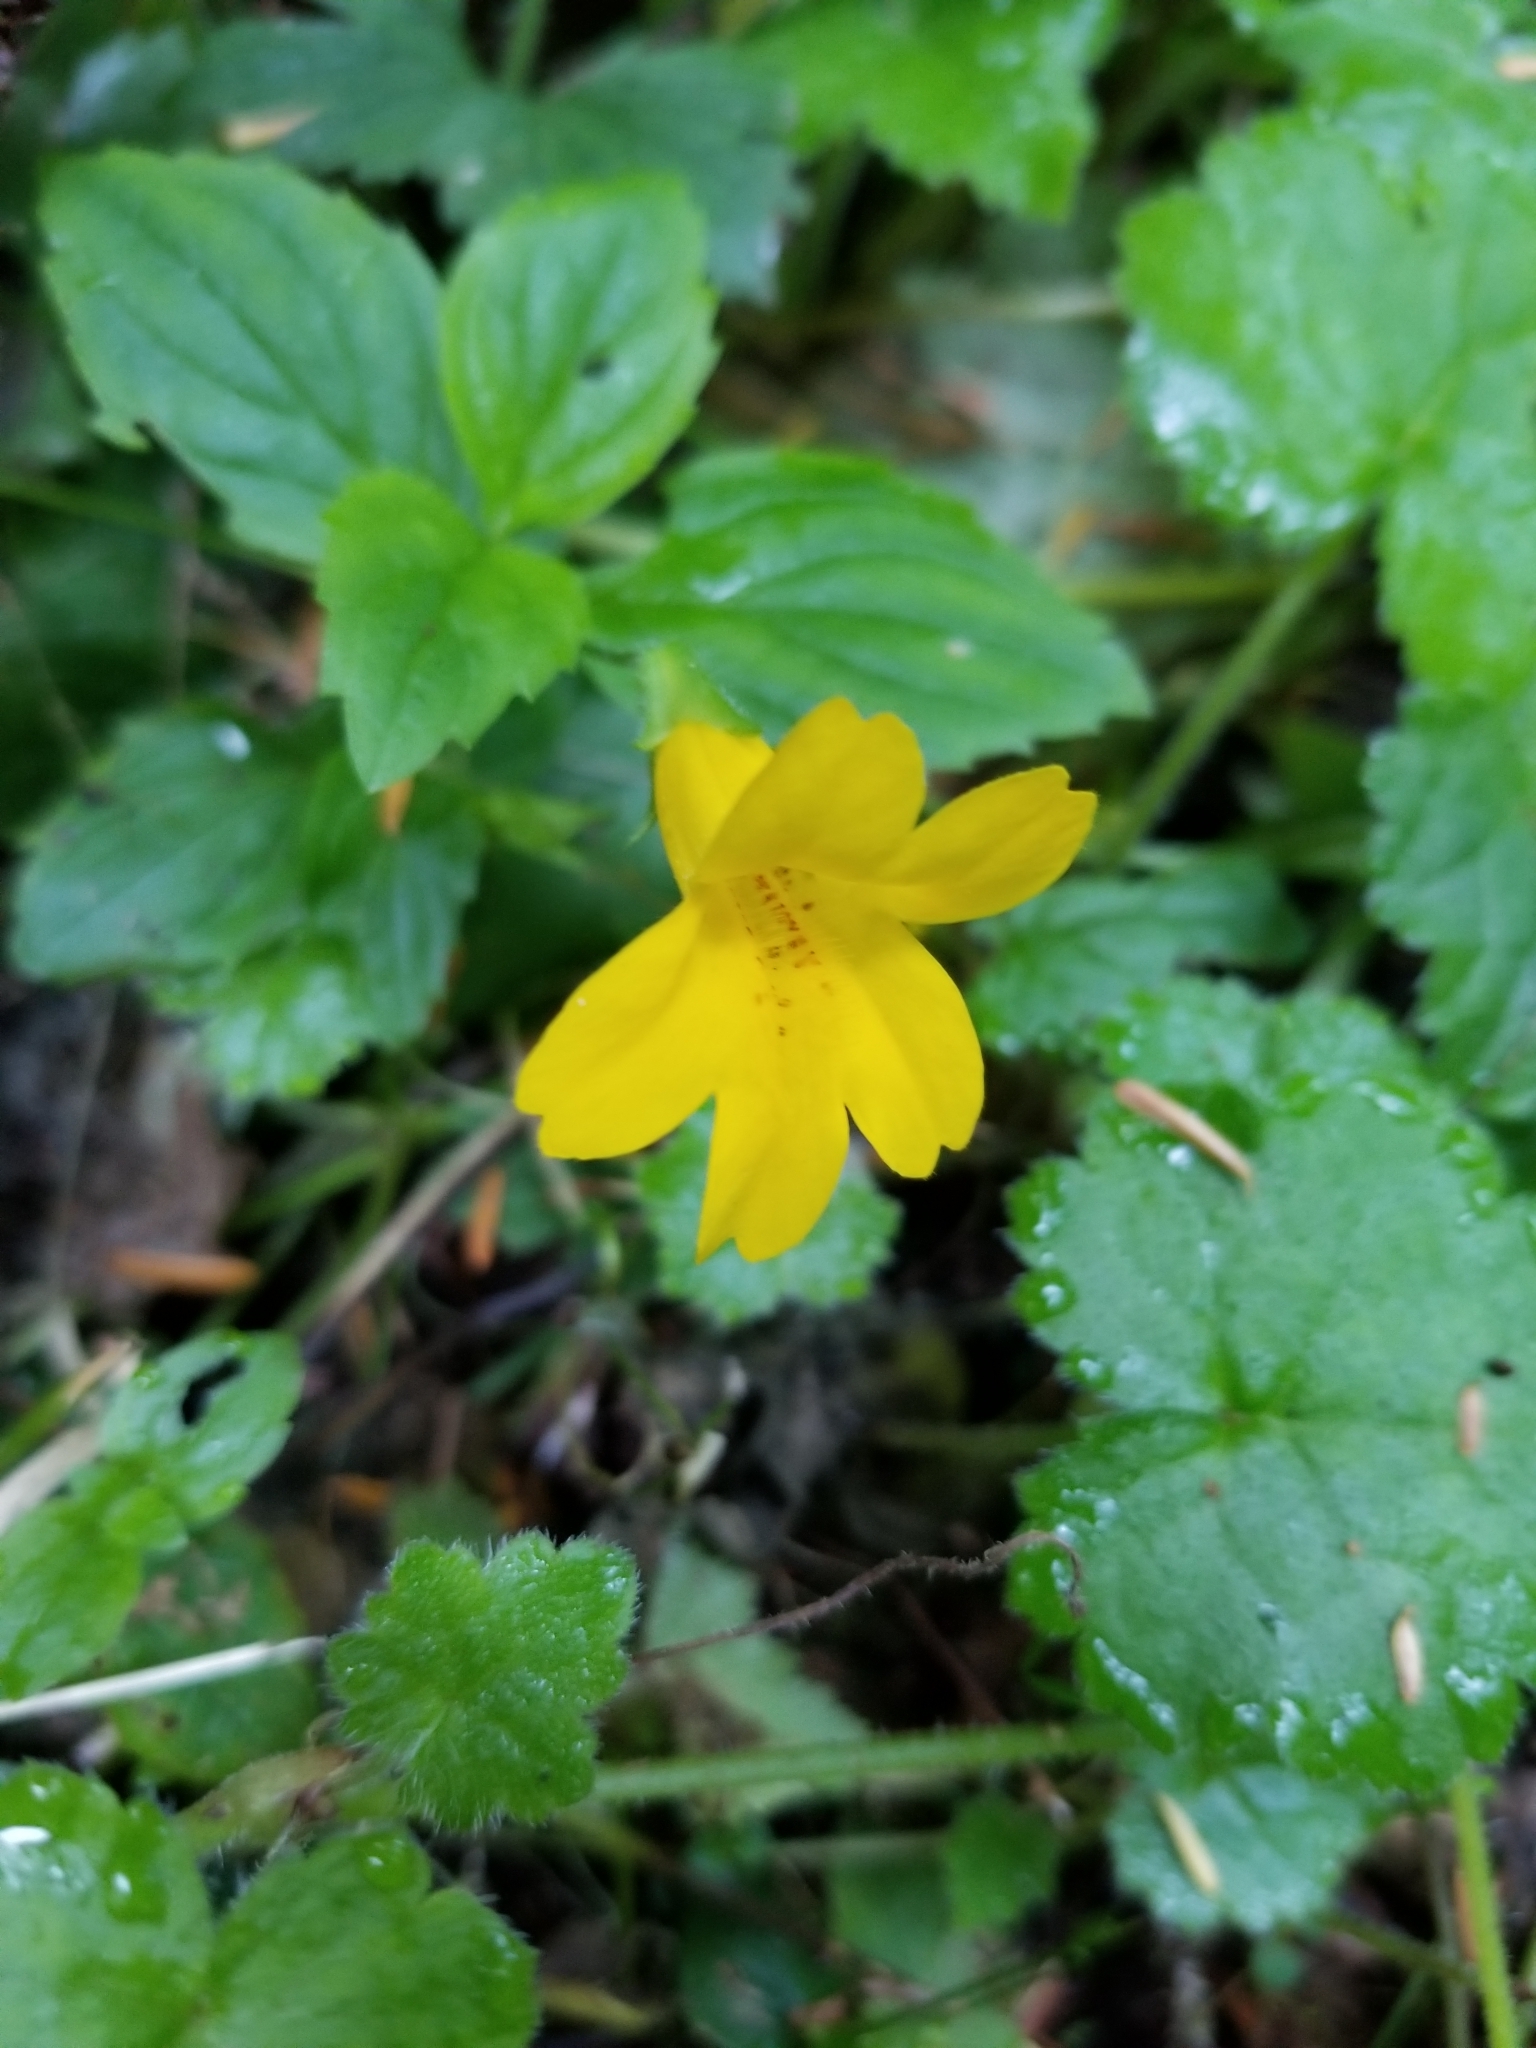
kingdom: Plantae
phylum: Tracheophyta
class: Magnoliopsida
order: Lamiales
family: Phrymaceae
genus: Erythranthe
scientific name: Erythranthe dentata
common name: Coastal monkeyflower
